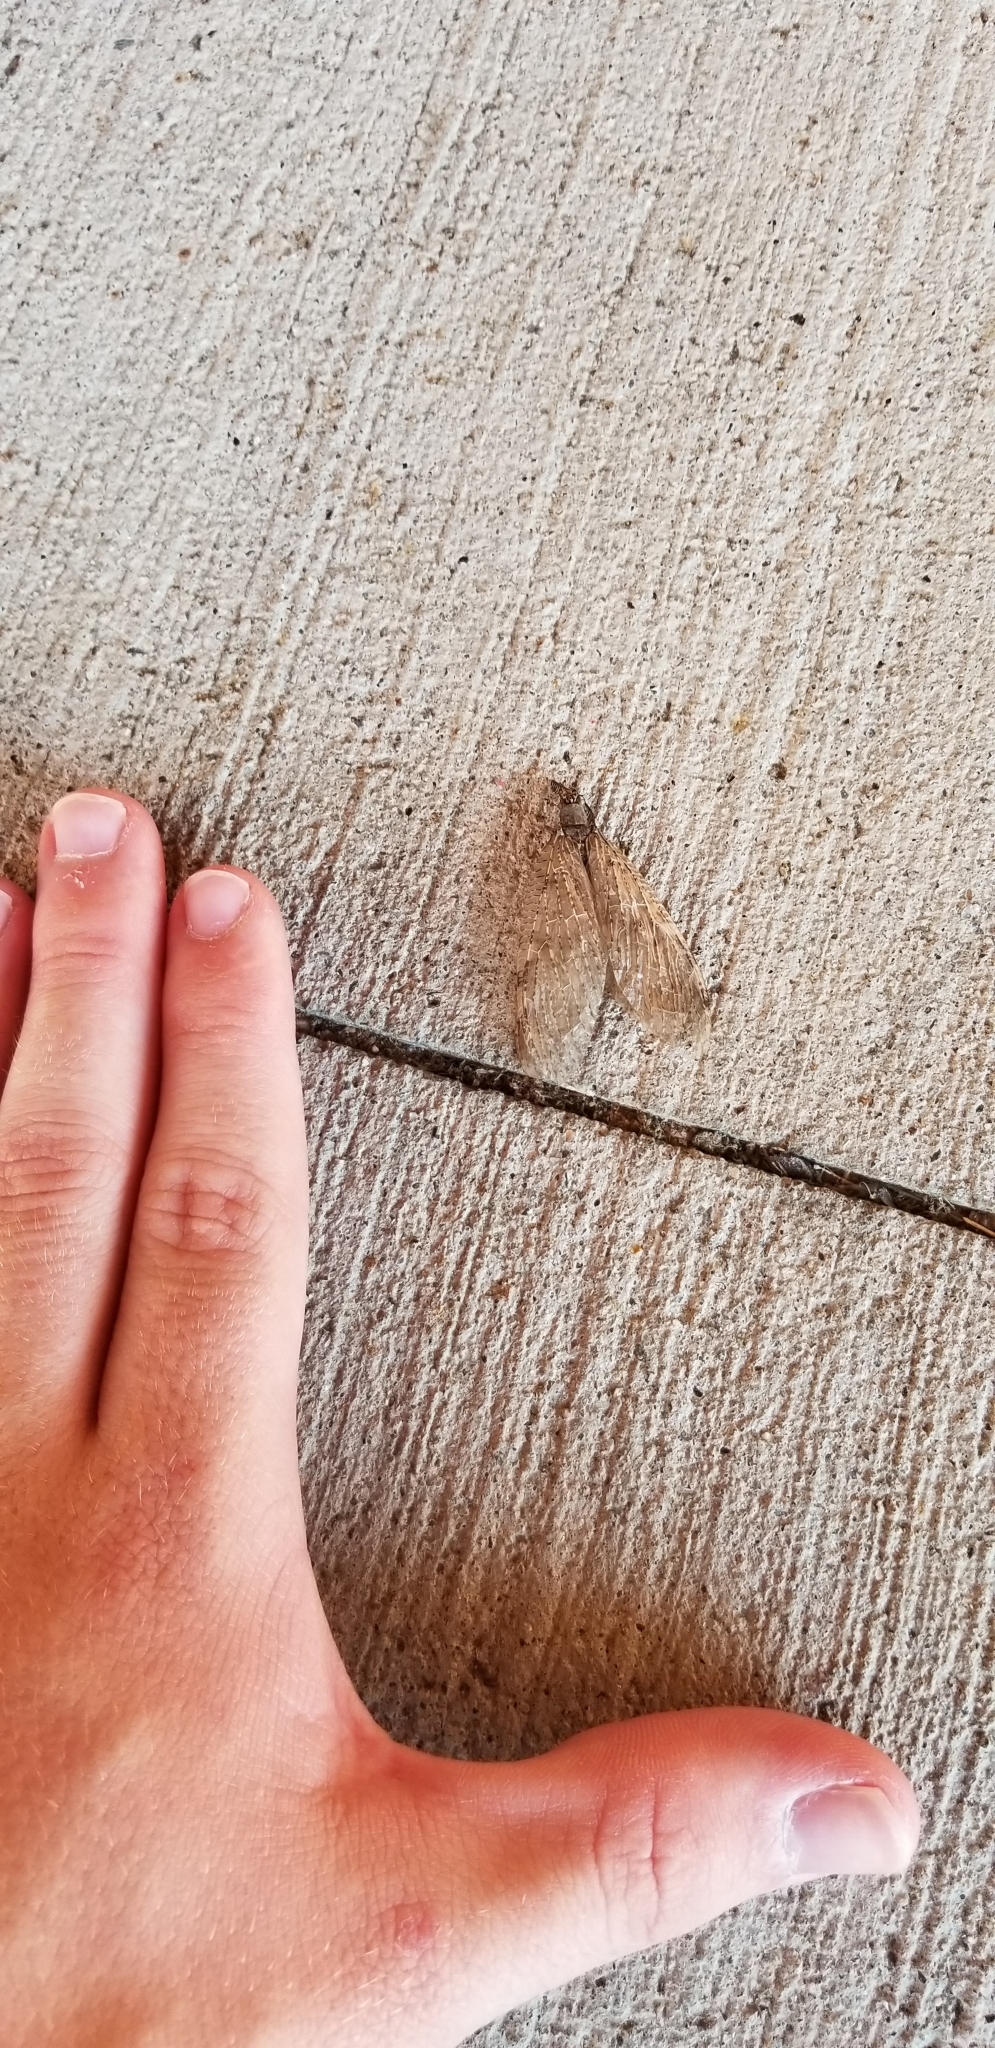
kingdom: Animalia
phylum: Arthropoda
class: Insecta
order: Megaloptera
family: Corydalidae
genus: Chauliodes
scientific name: Chauliodes pectinicornis
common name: Summer fishfly
